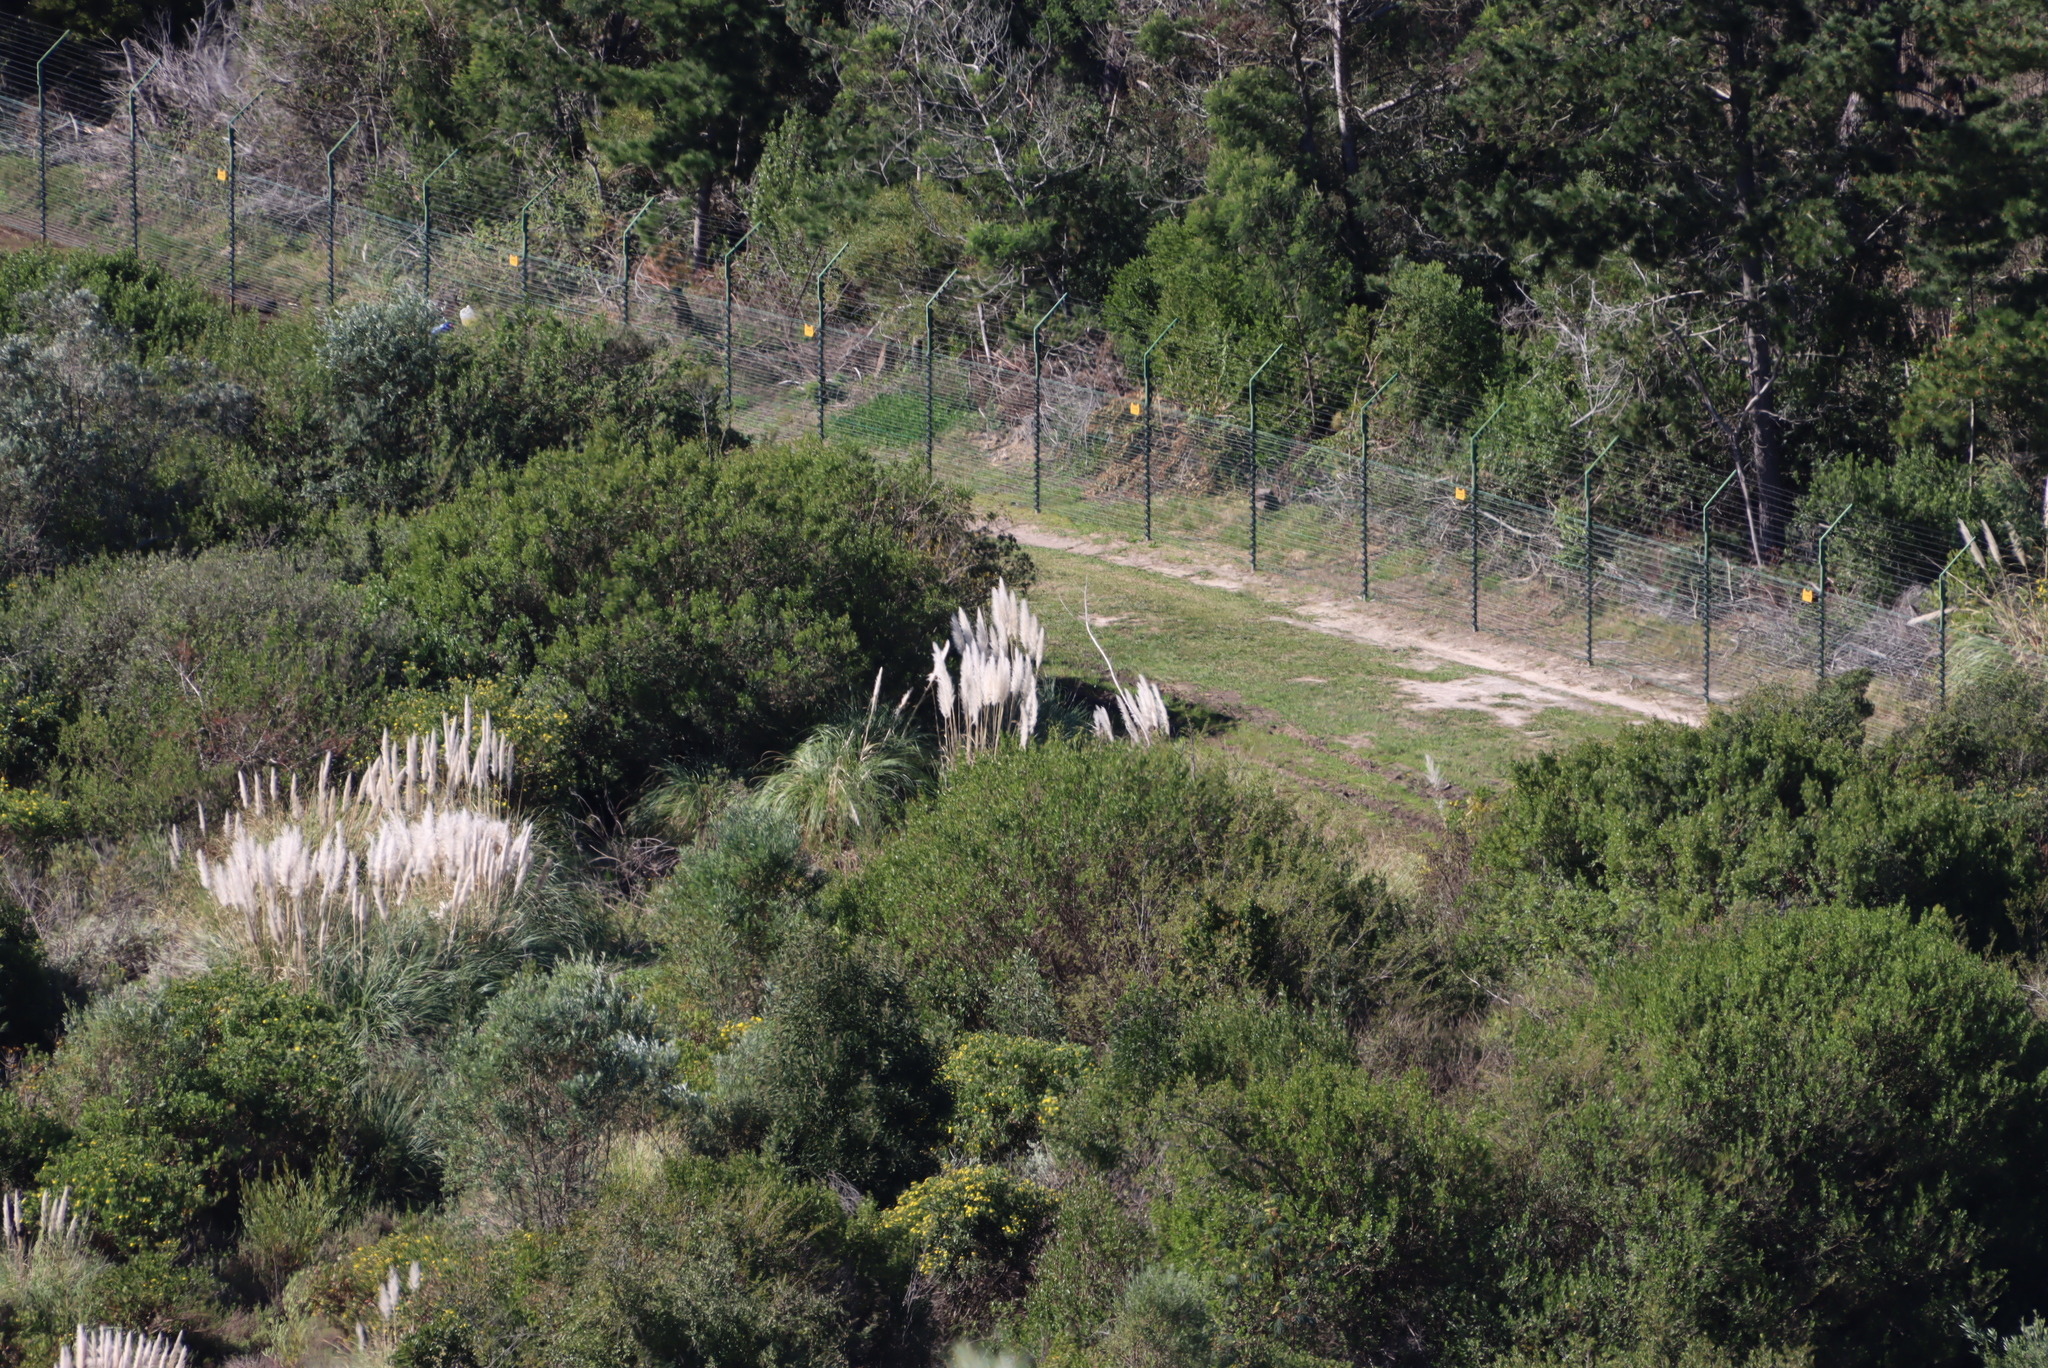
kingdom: Plantae
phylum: Tracheophyta
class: Liliopsida
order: Poales
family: Poaceae
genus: Cortaderia
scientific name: Cortaderia selloana
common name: Uruguayan pampas grass
